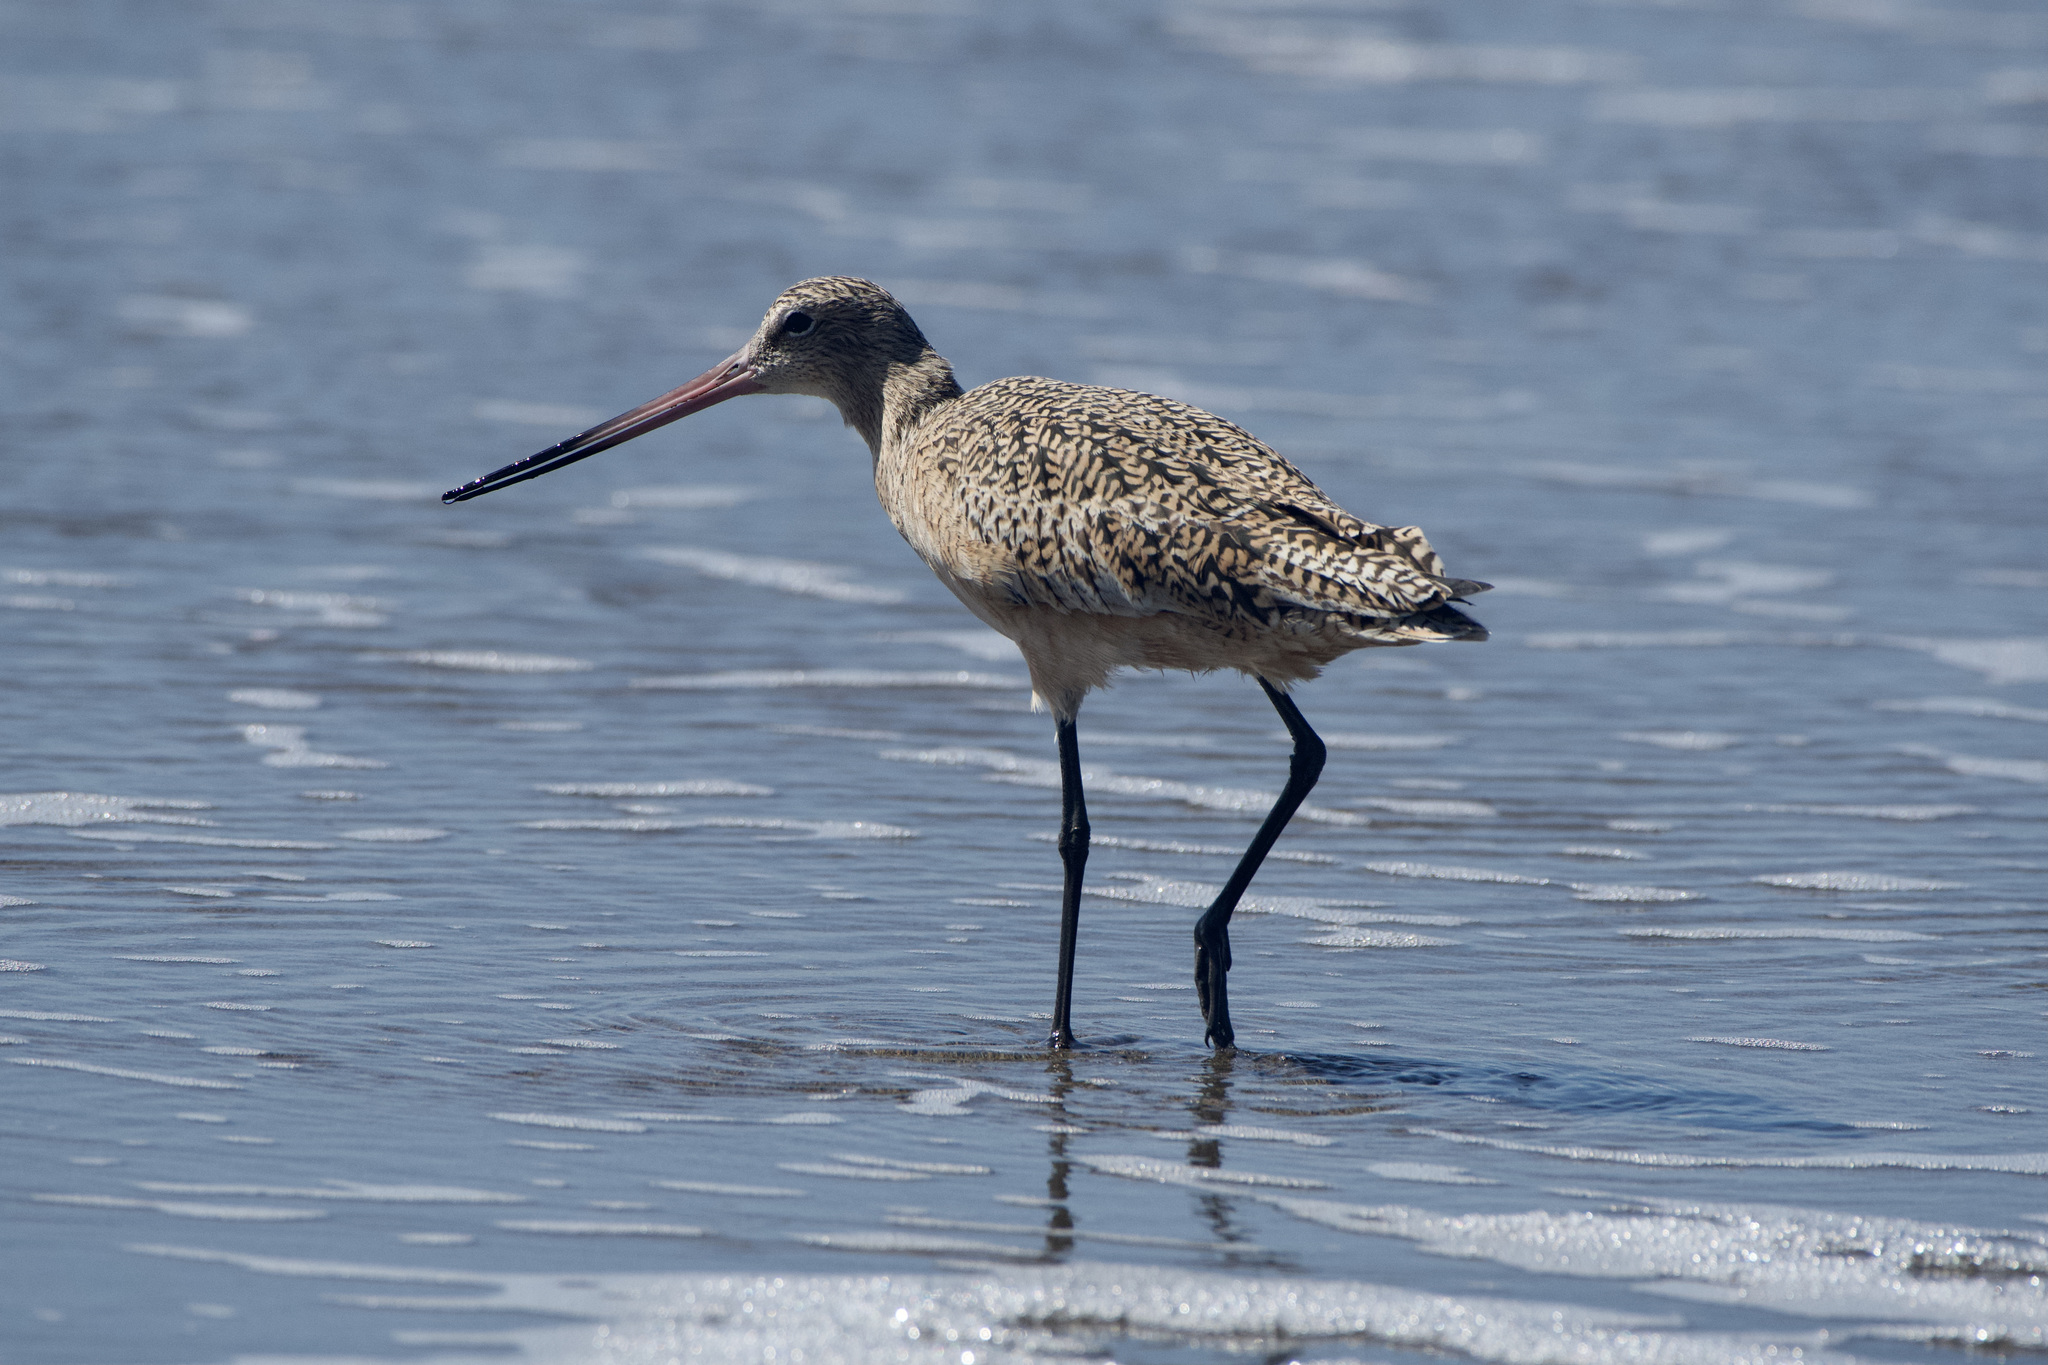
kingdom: Animalia
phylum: Chordata
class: Aves
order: Charadriiformes
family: Scolopacidae
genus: Limosa
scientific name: Limosa fedoa
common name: Marbled godwit
